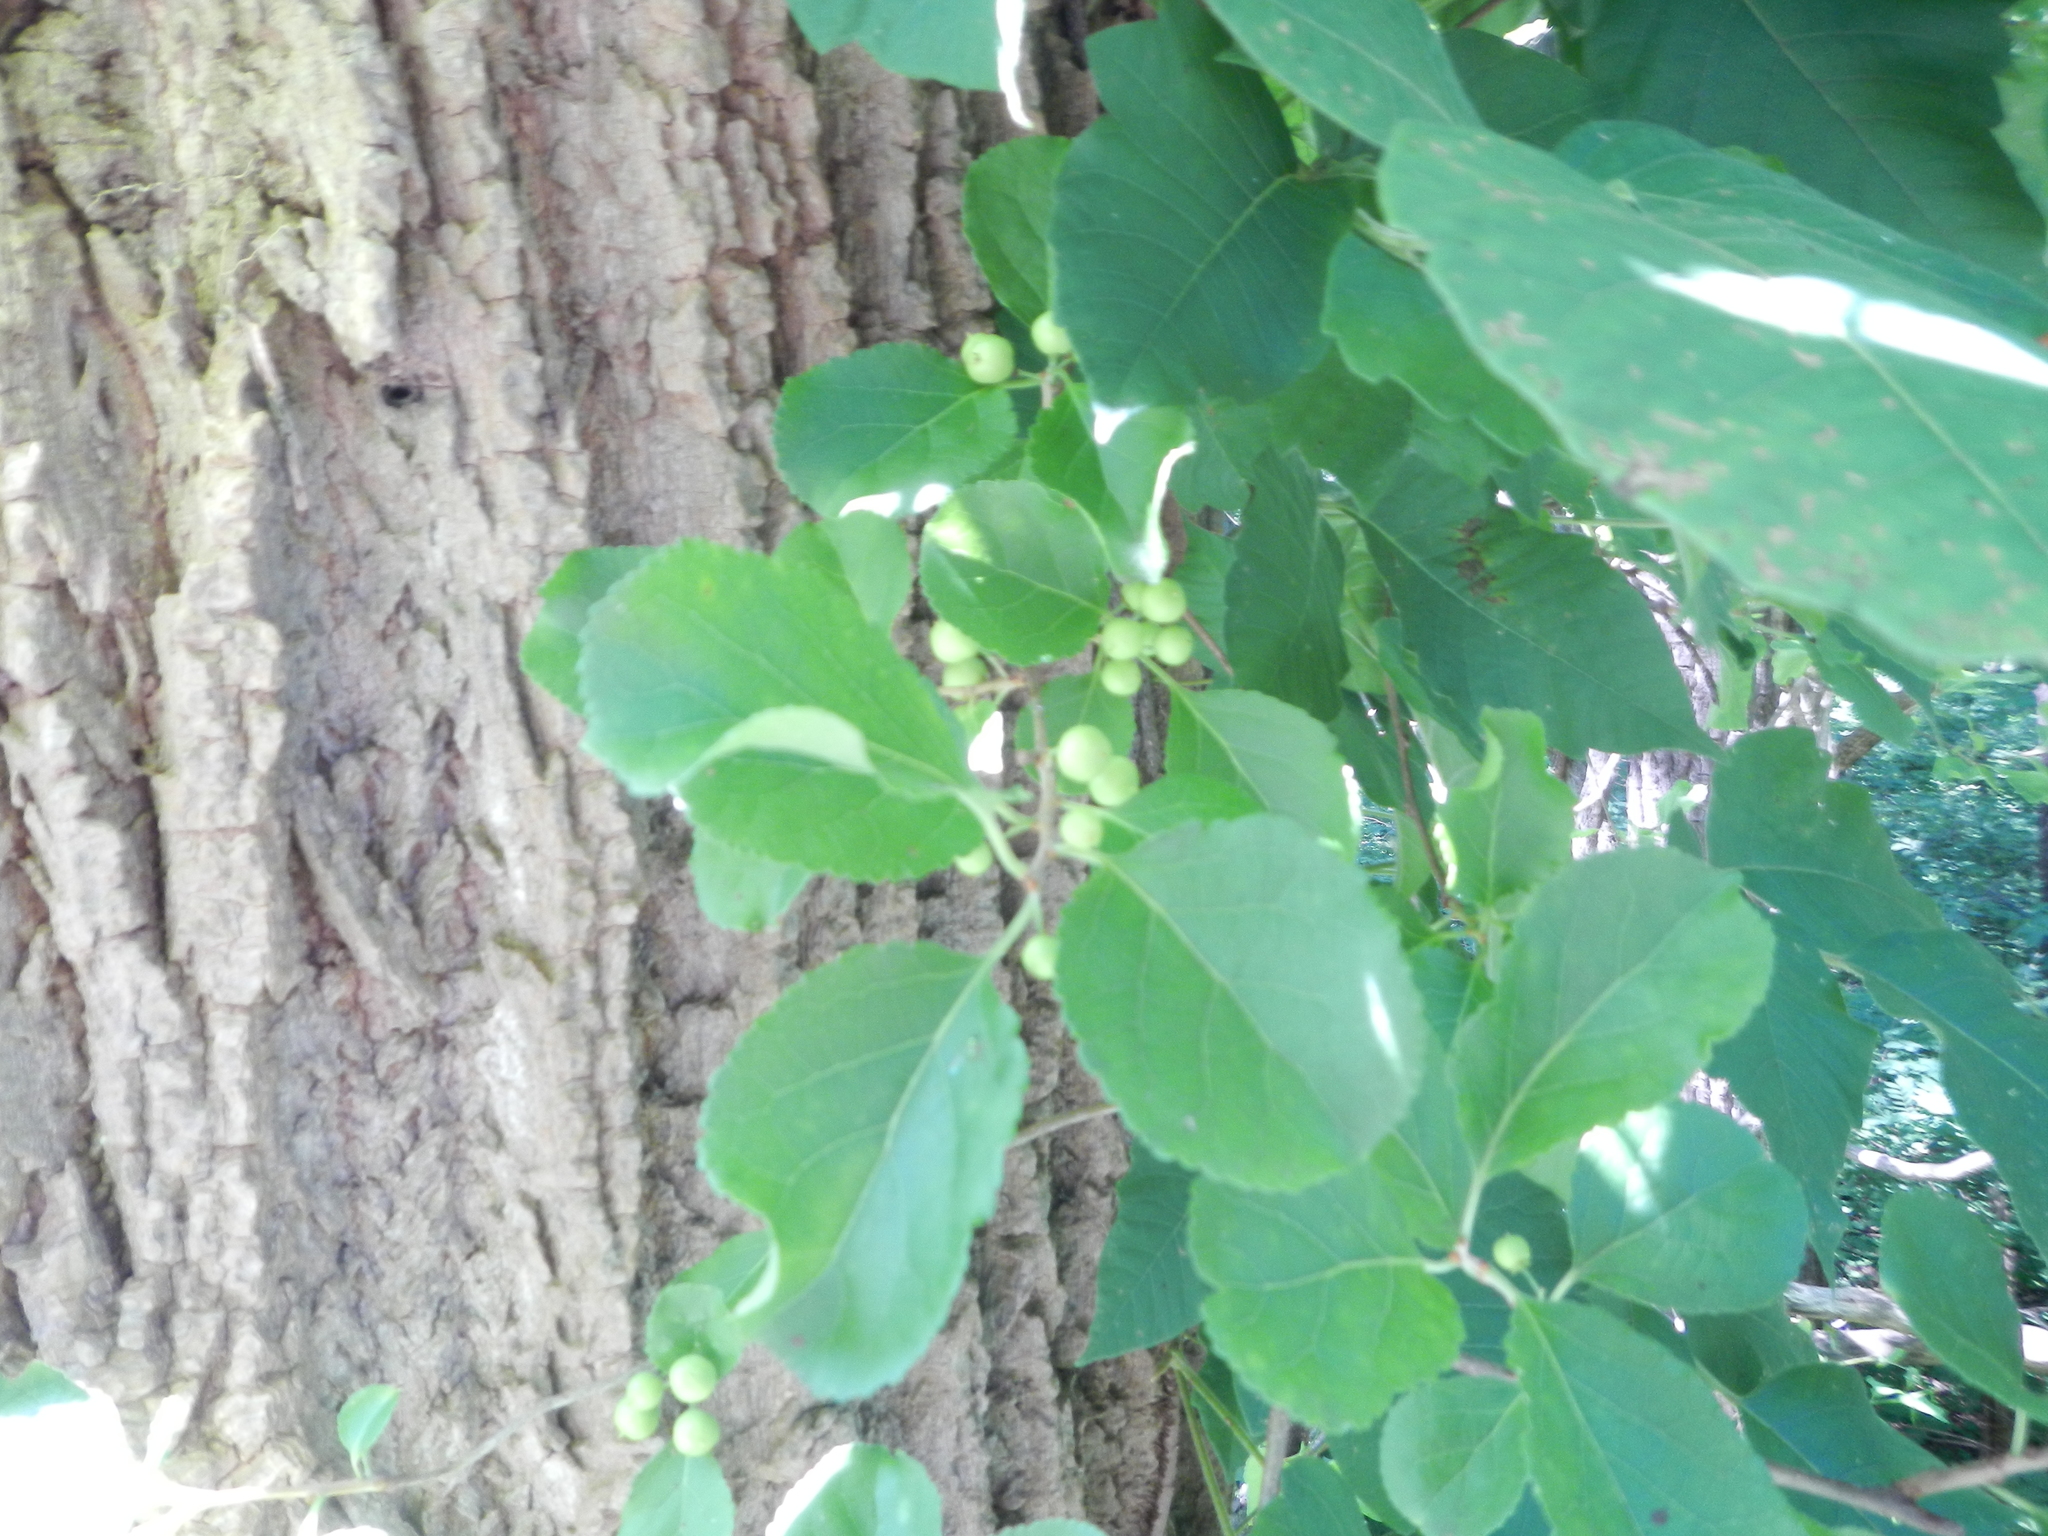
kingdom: Plantae
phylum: Tracheophyta
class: Magnoliopsida
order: Celastrales
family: Celastraceae
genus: Celastrus
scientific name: Celastrus orbiculatus
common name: Oriental bittersweet
